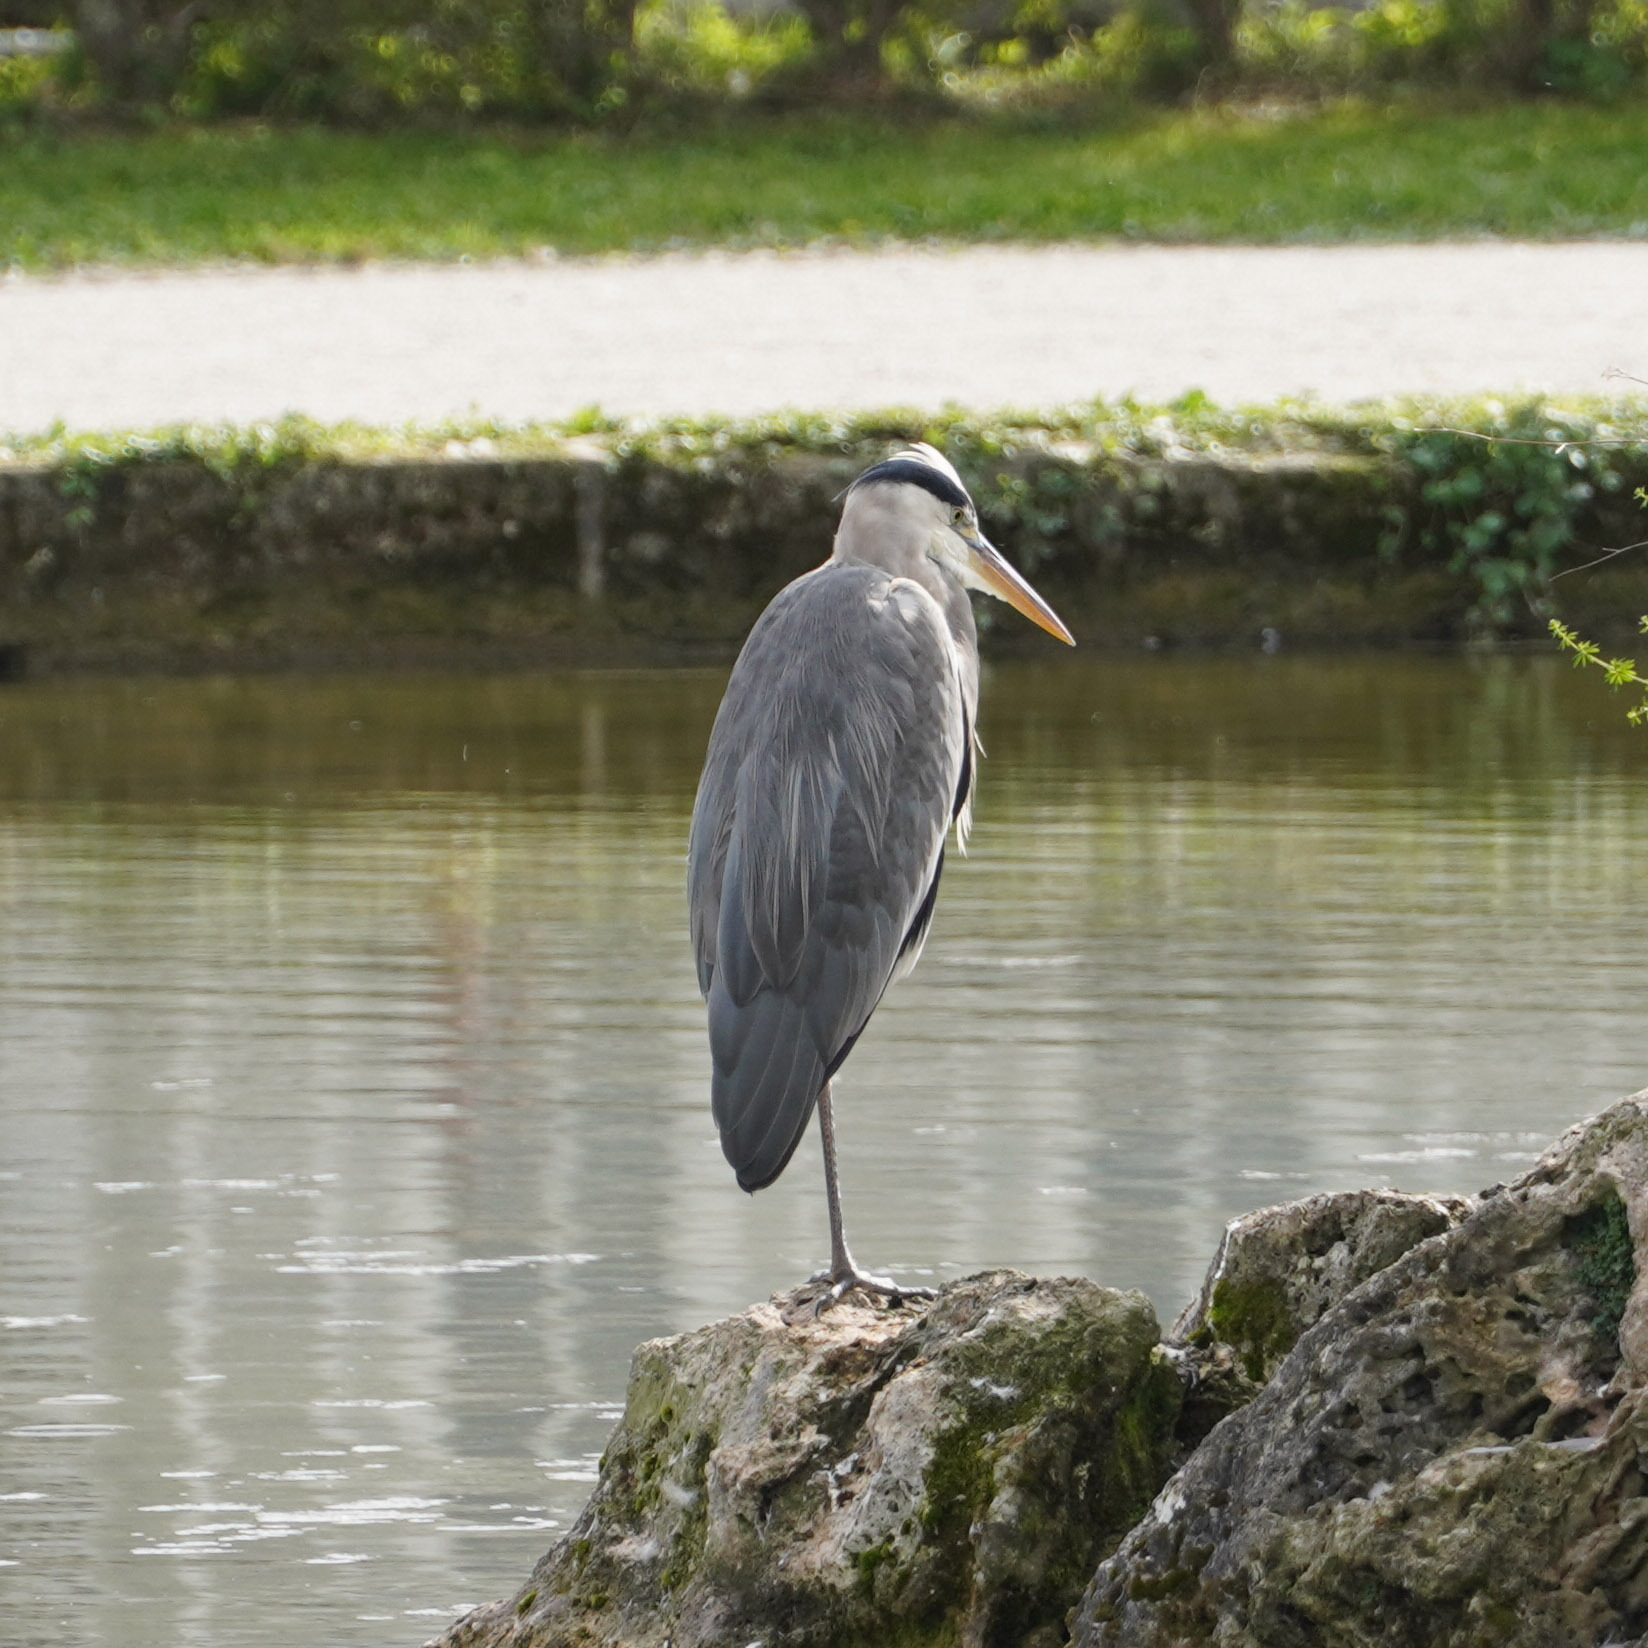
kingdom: Animalia
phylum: Chordata
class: Aves
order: Pelecaniformes
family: Ardeidae
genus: Ardea
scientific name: Ardea cinerea
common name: Grey heron
